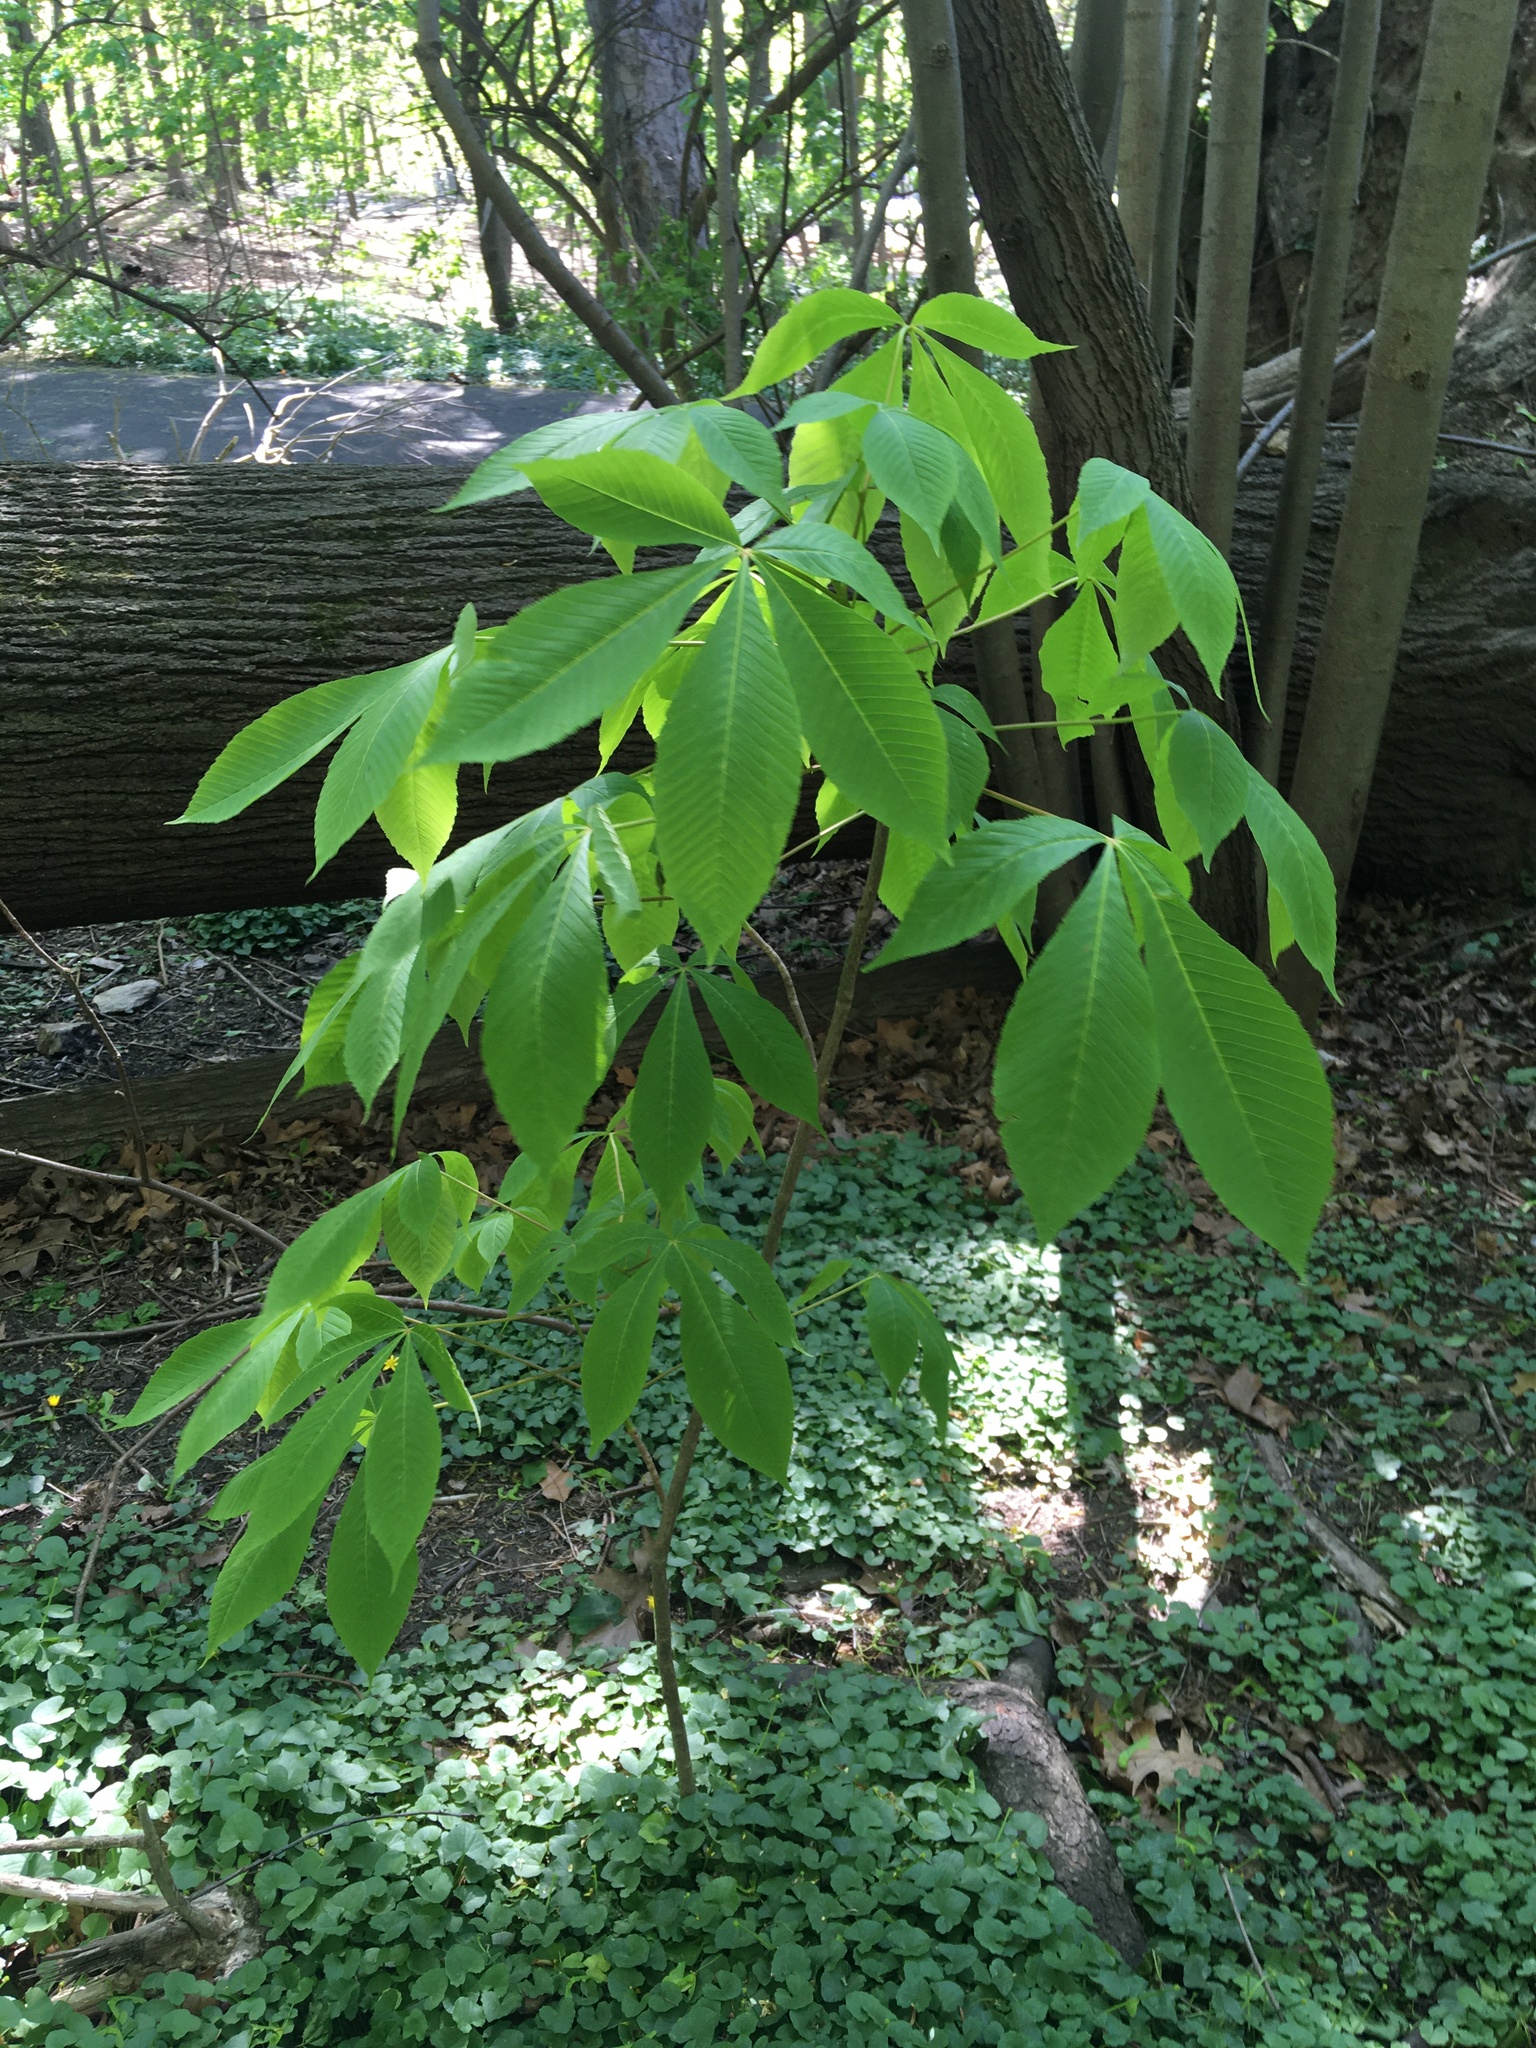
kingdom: Plantae
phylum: Tracheophyta
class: Magnoliopsida
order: Sapindales
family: Sapindaceae
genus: Aesculus
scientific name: Aesculus flava
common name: Yellow buckeye
